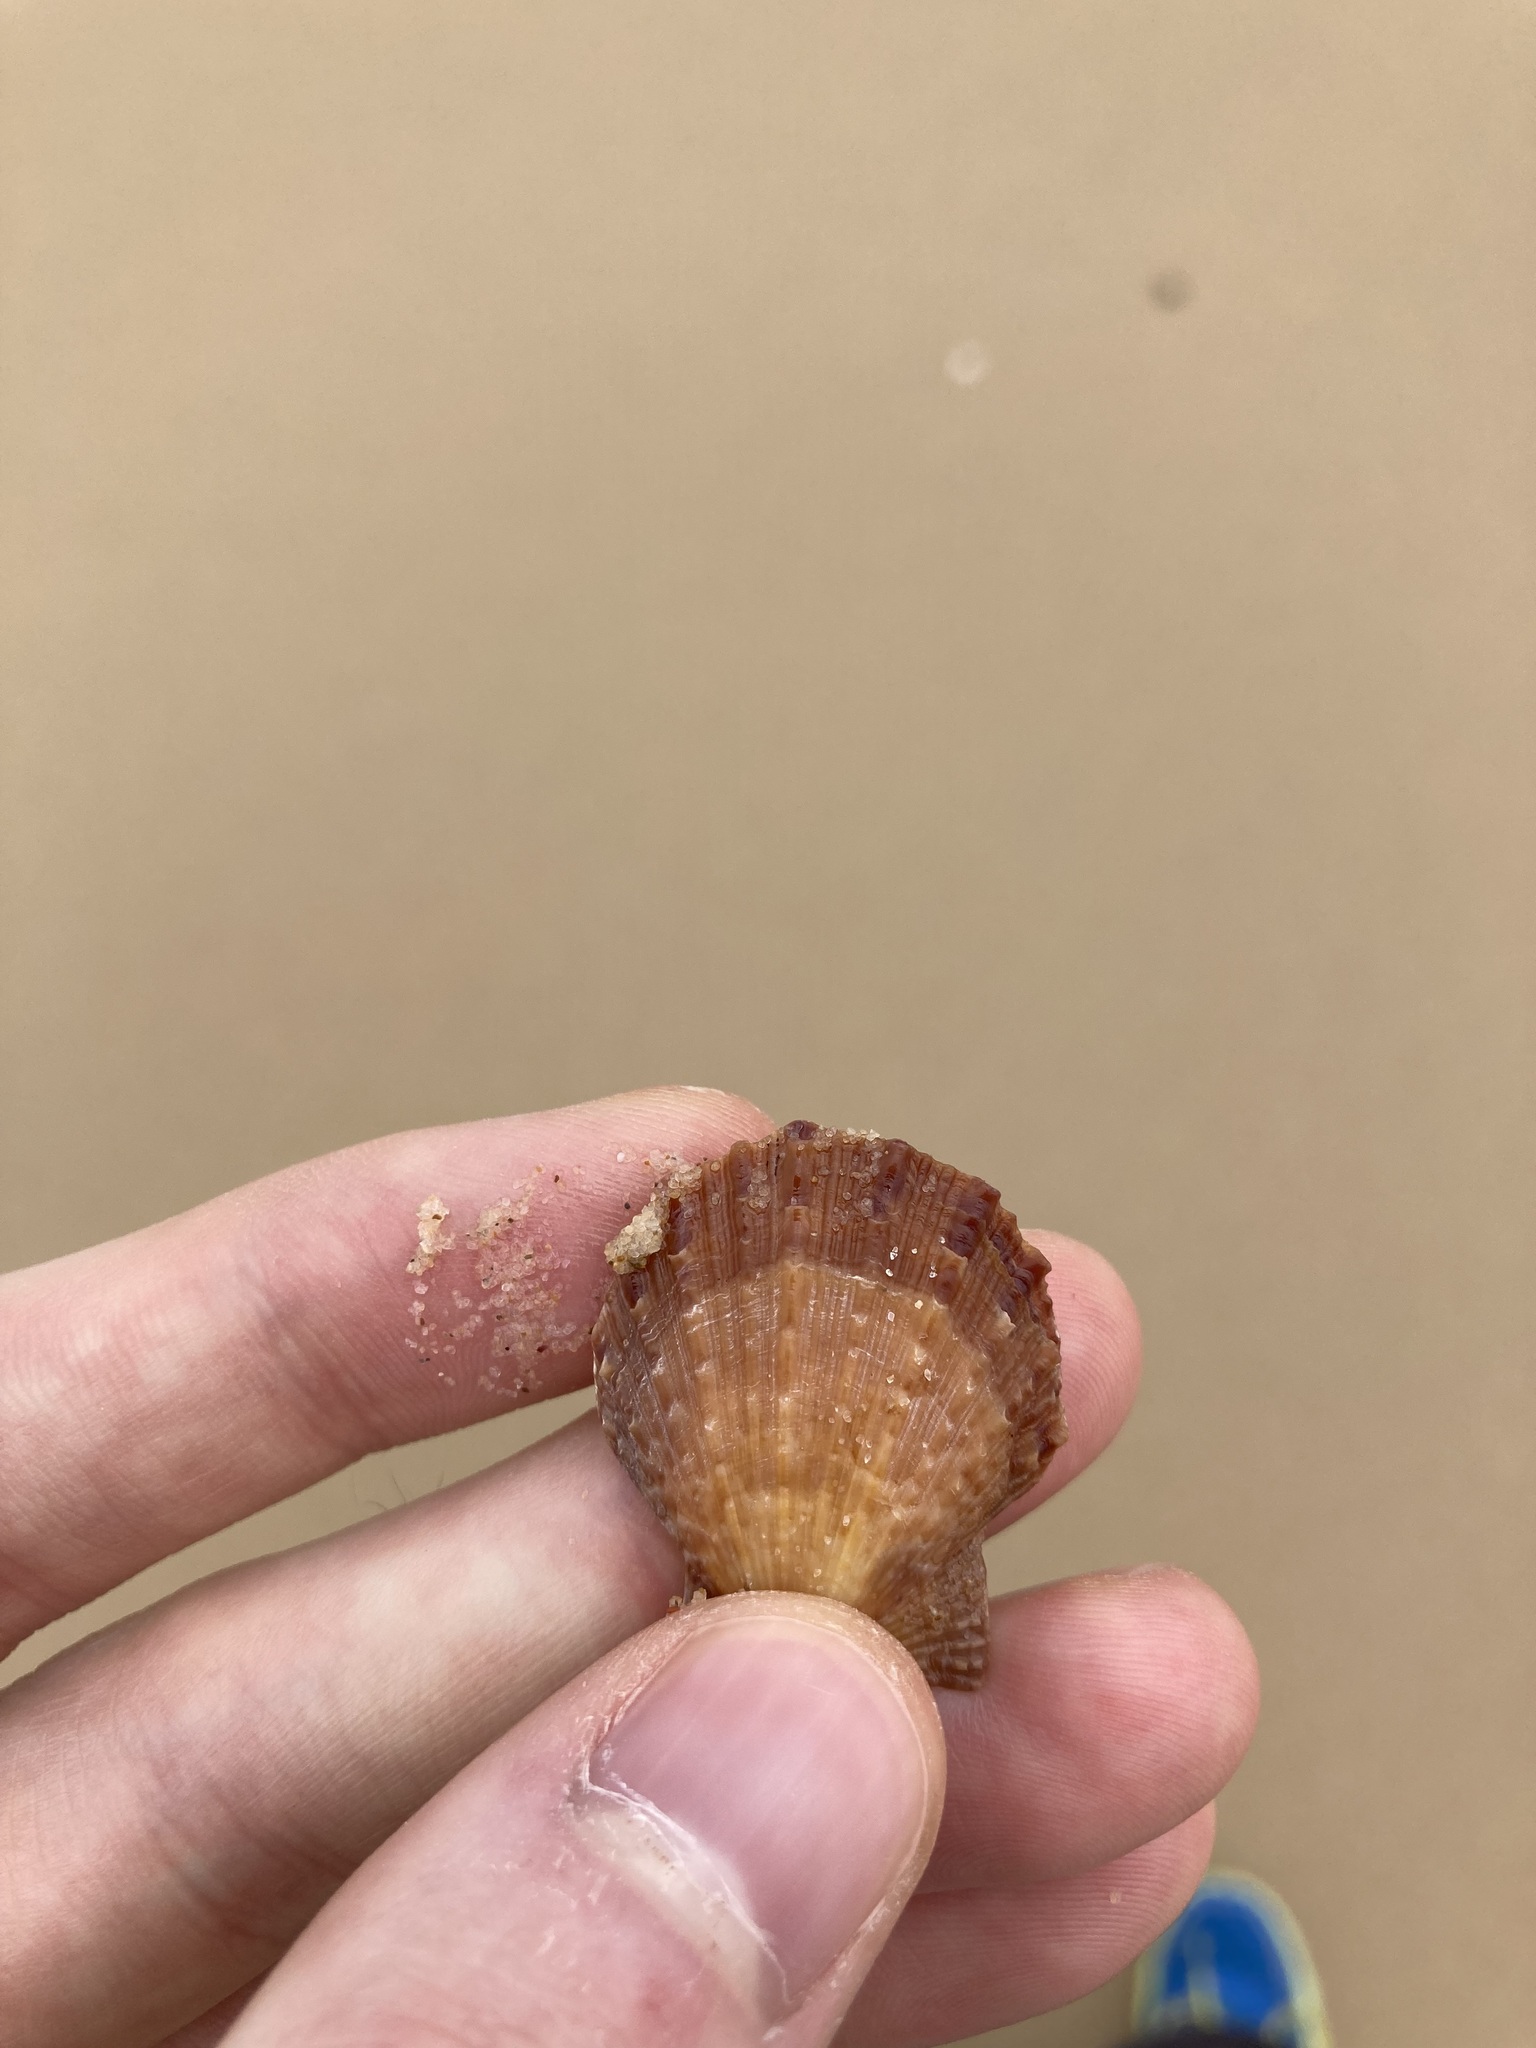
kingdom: Animalia
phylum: Mollusca
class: Bivalvia
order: Pectinida
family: Pectinidae
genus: Scaeochlamys
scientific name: Scaeochlamys livida
